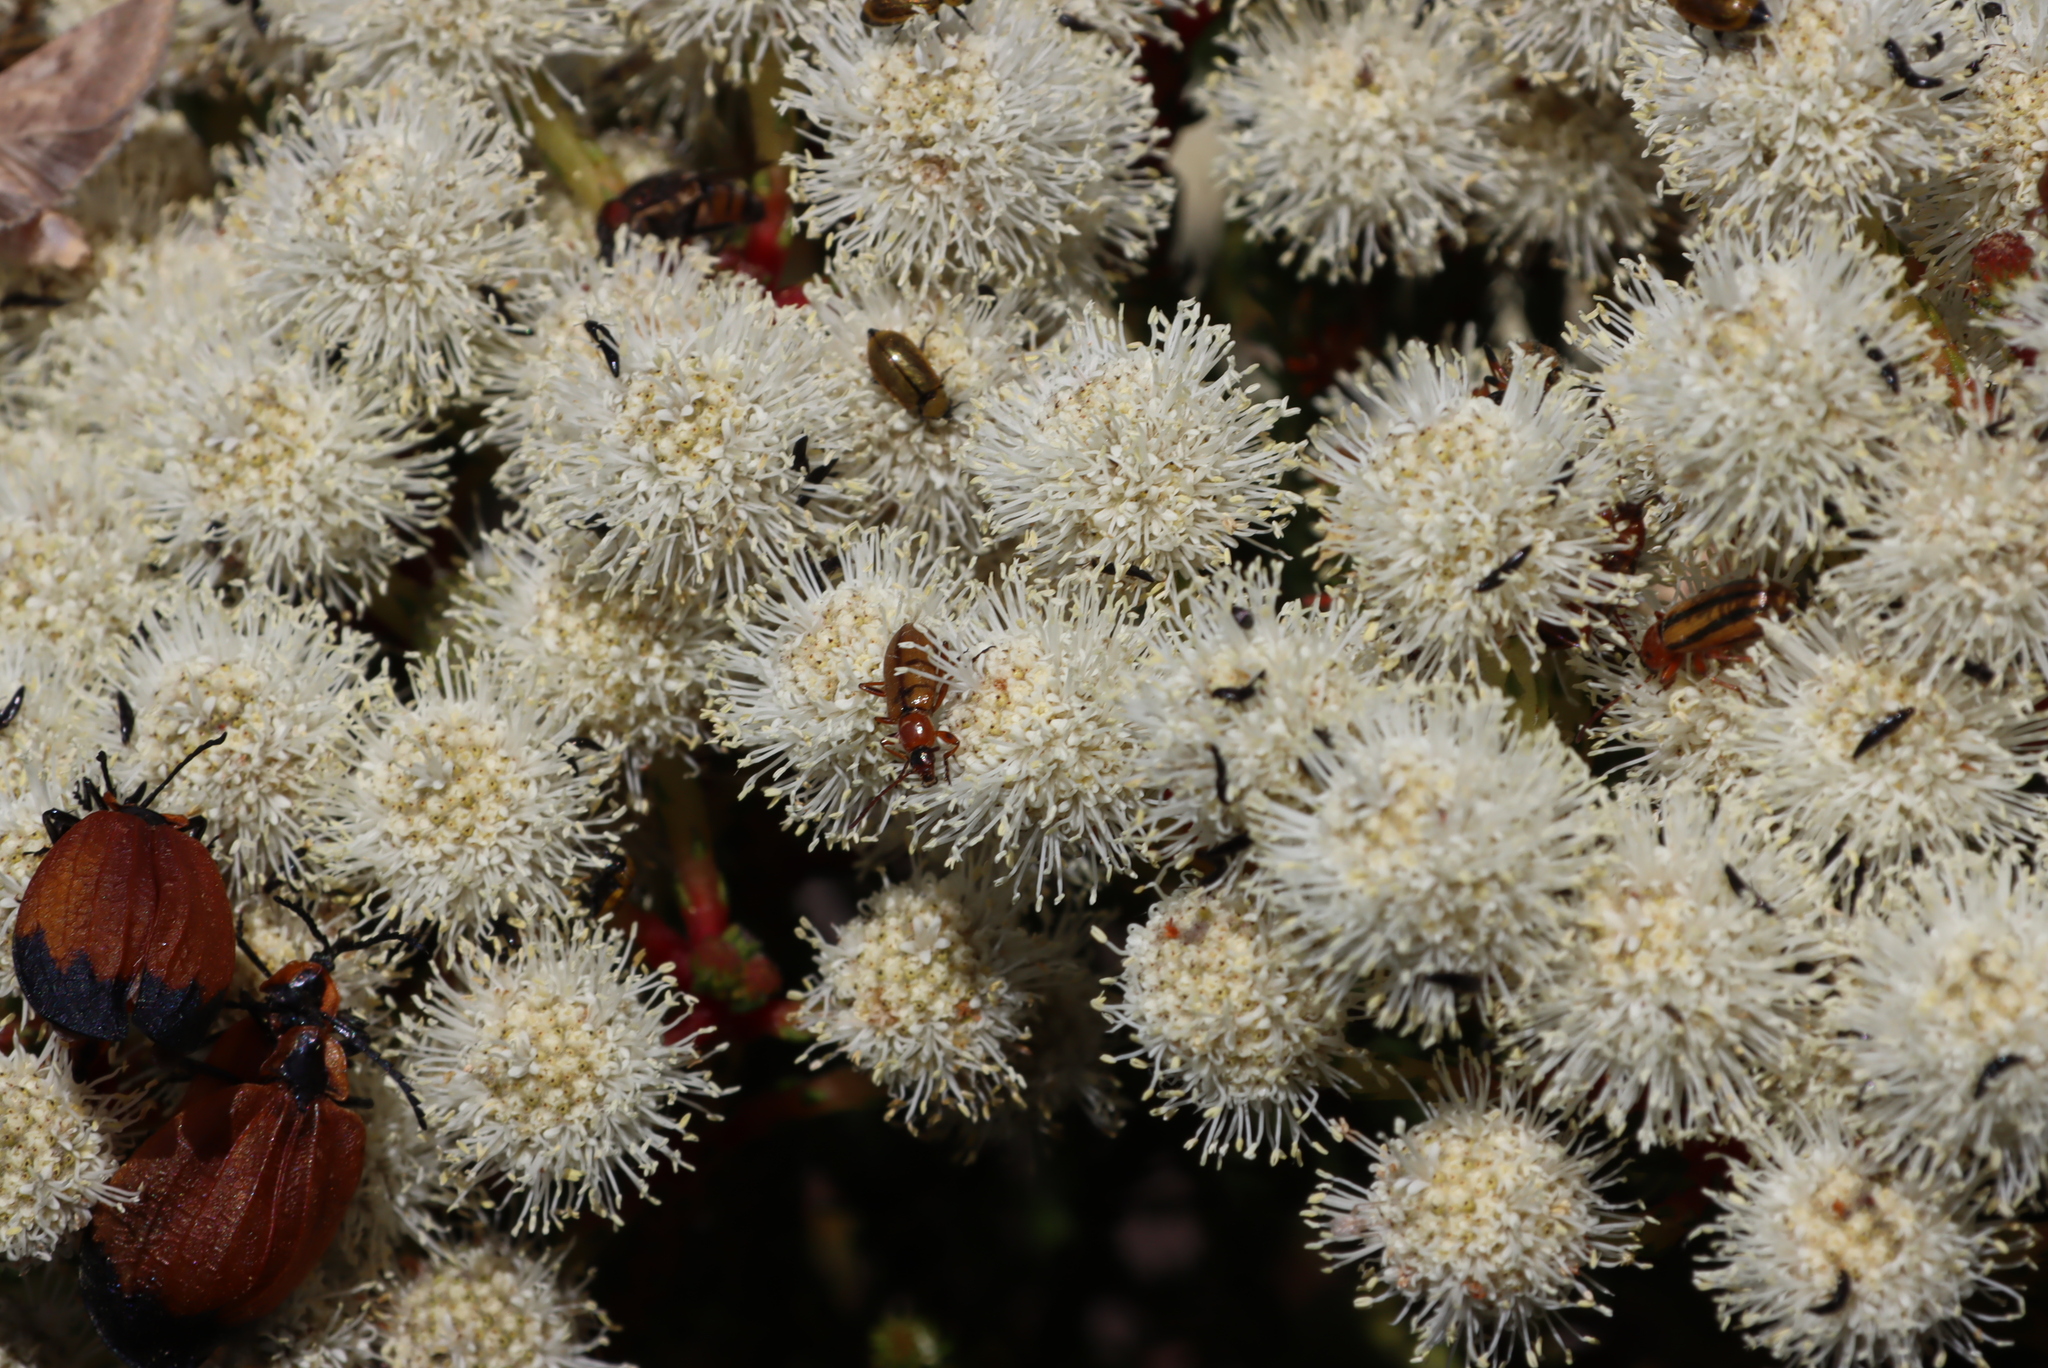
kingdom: Animalia
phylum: Arthropoda
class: Insecta
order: Coleoptera
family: Lycidae
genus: Lycus
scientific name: Lycus
